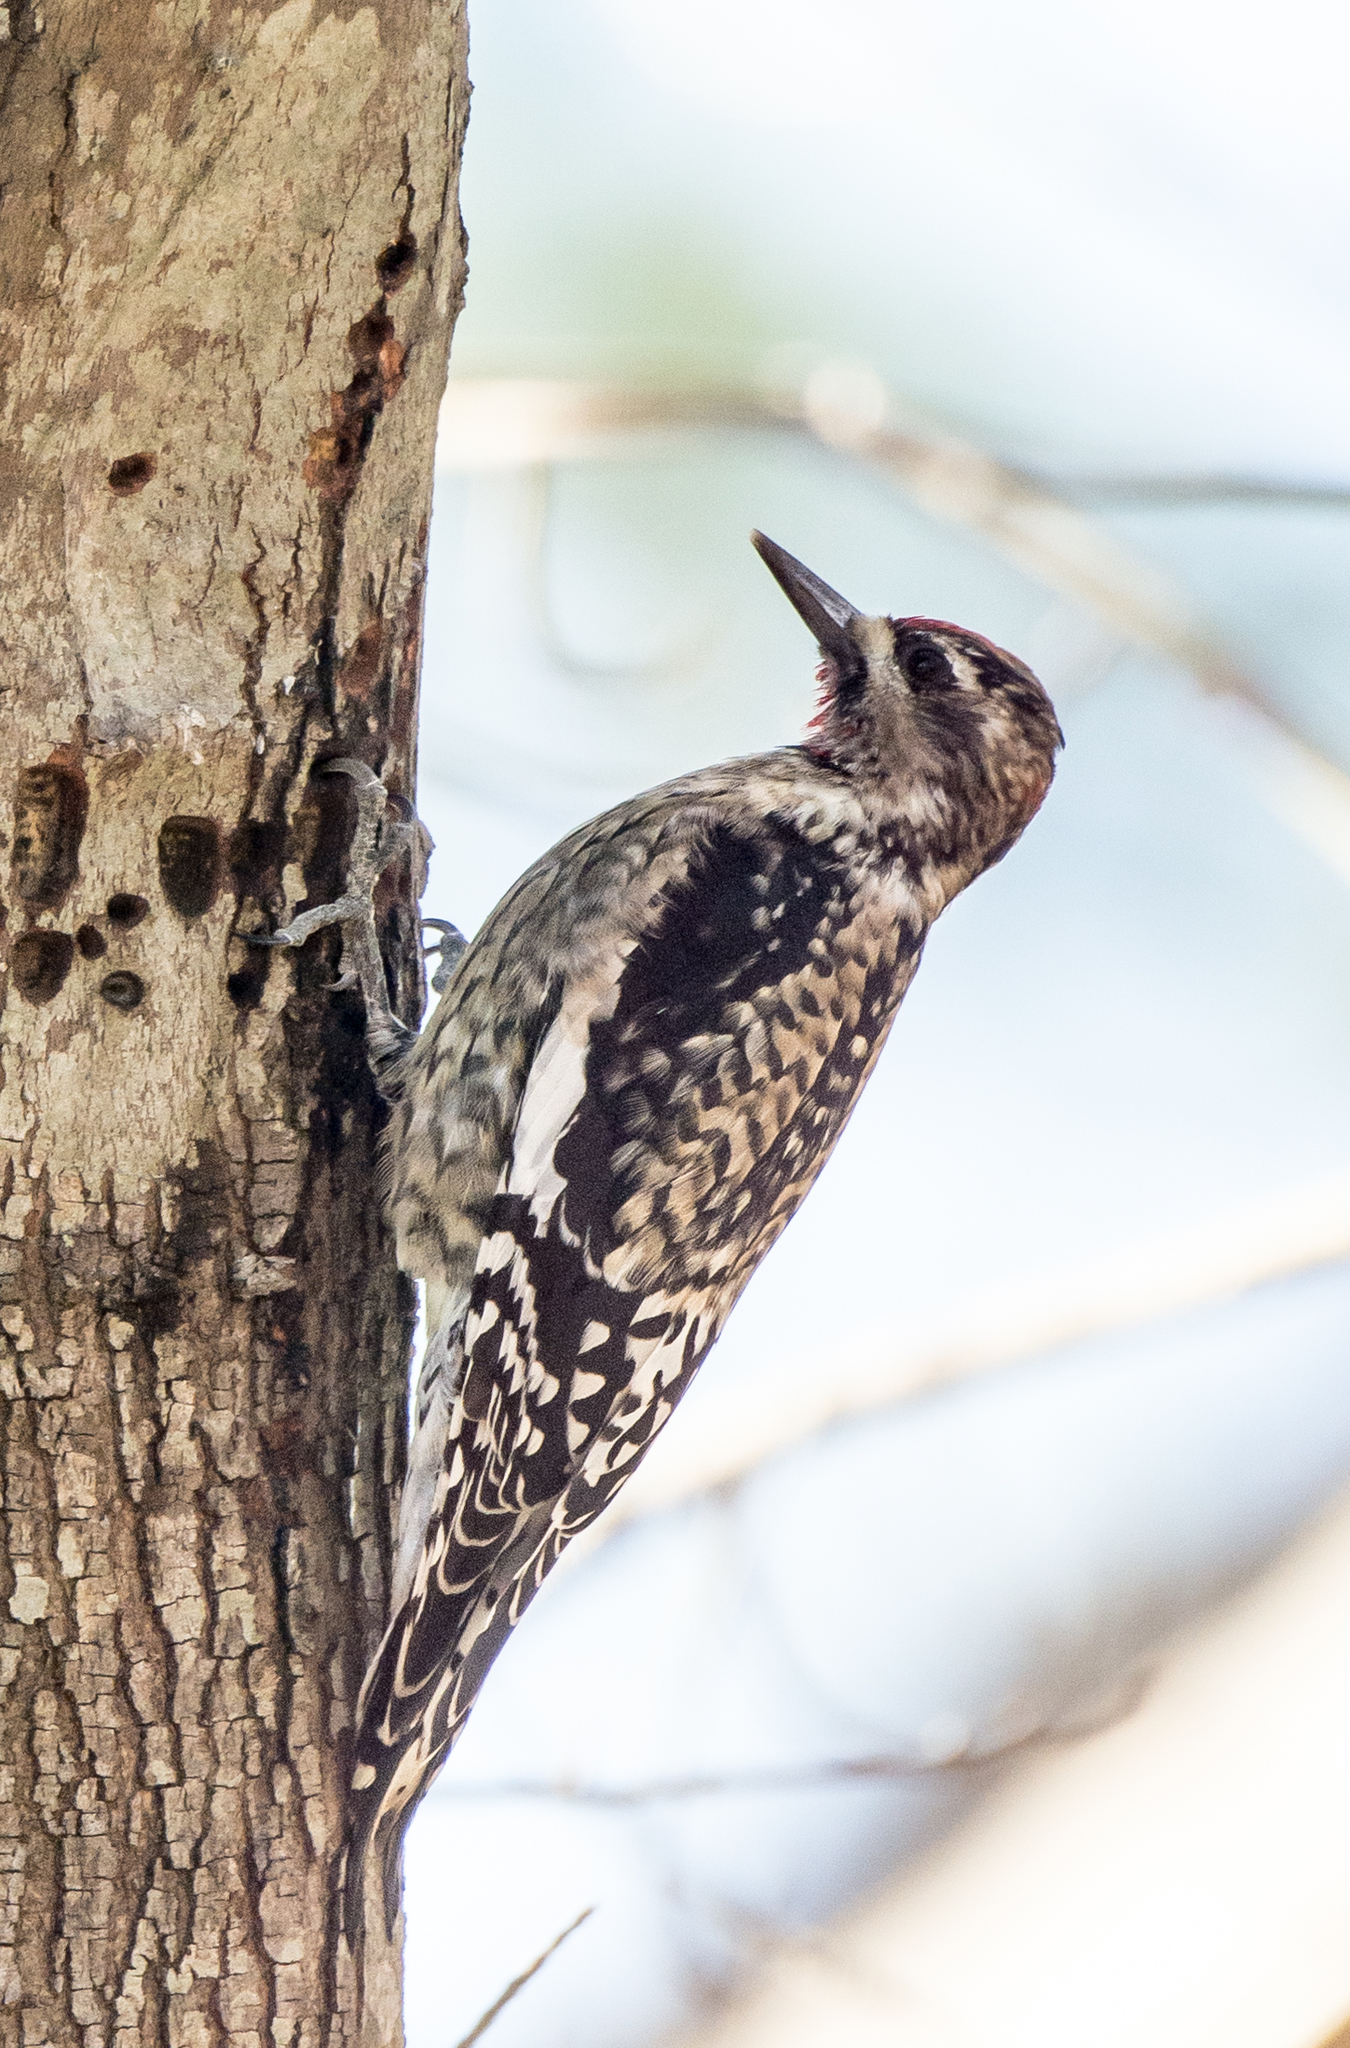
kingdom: Animalia
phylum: Chordata
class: Aves
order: Piciformes
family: Picidae
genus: Sphyrapicus
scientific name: Sphyrapicus varius
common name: Yellow-bellied sapsucker
